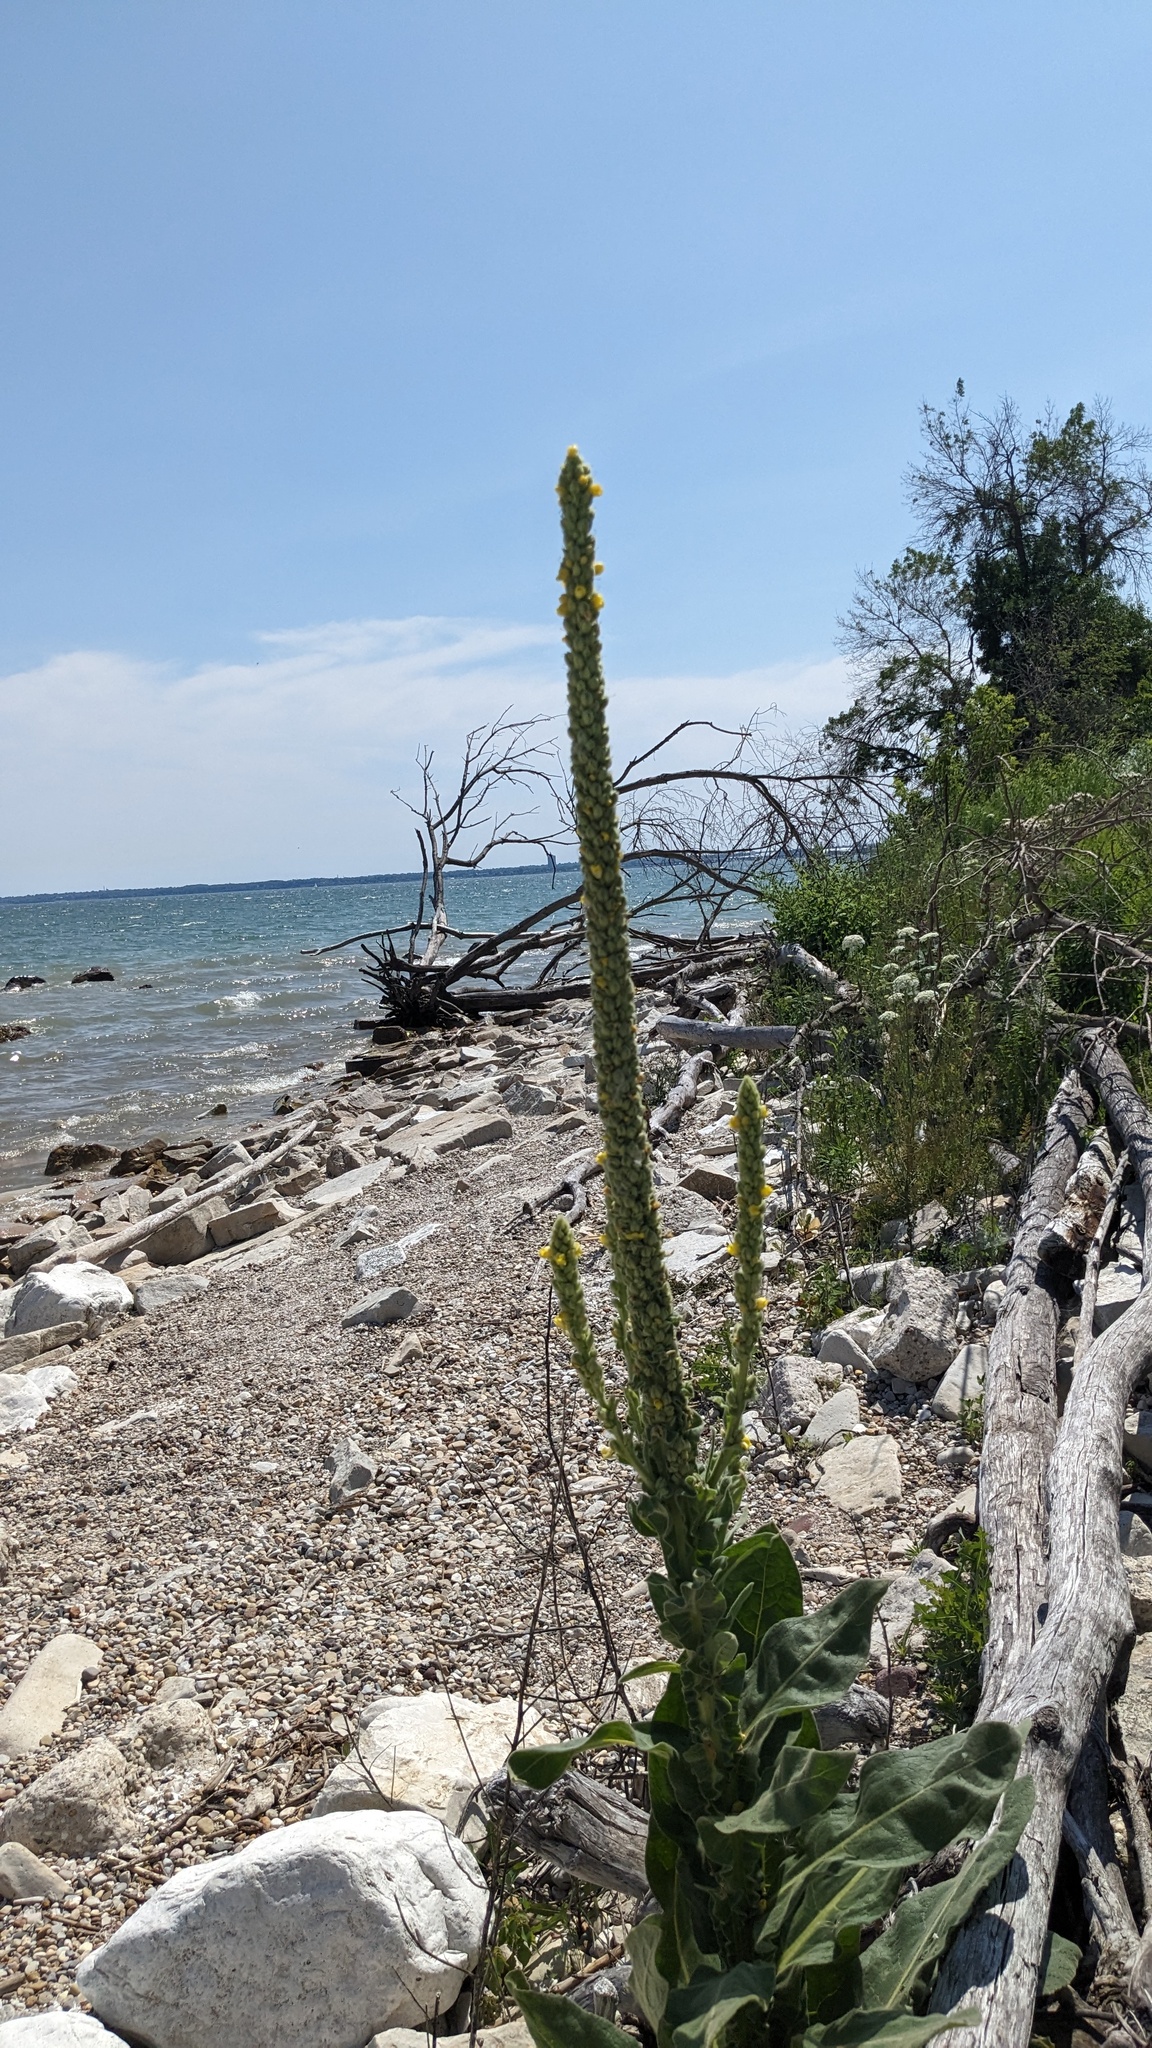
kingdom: Plantae
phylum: Tracheophyta
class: Magnoliopsida
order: Lamiales
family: Scrophulariaceae
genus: Verbascum
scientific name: Verbascum thapsus
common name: Common mullein
